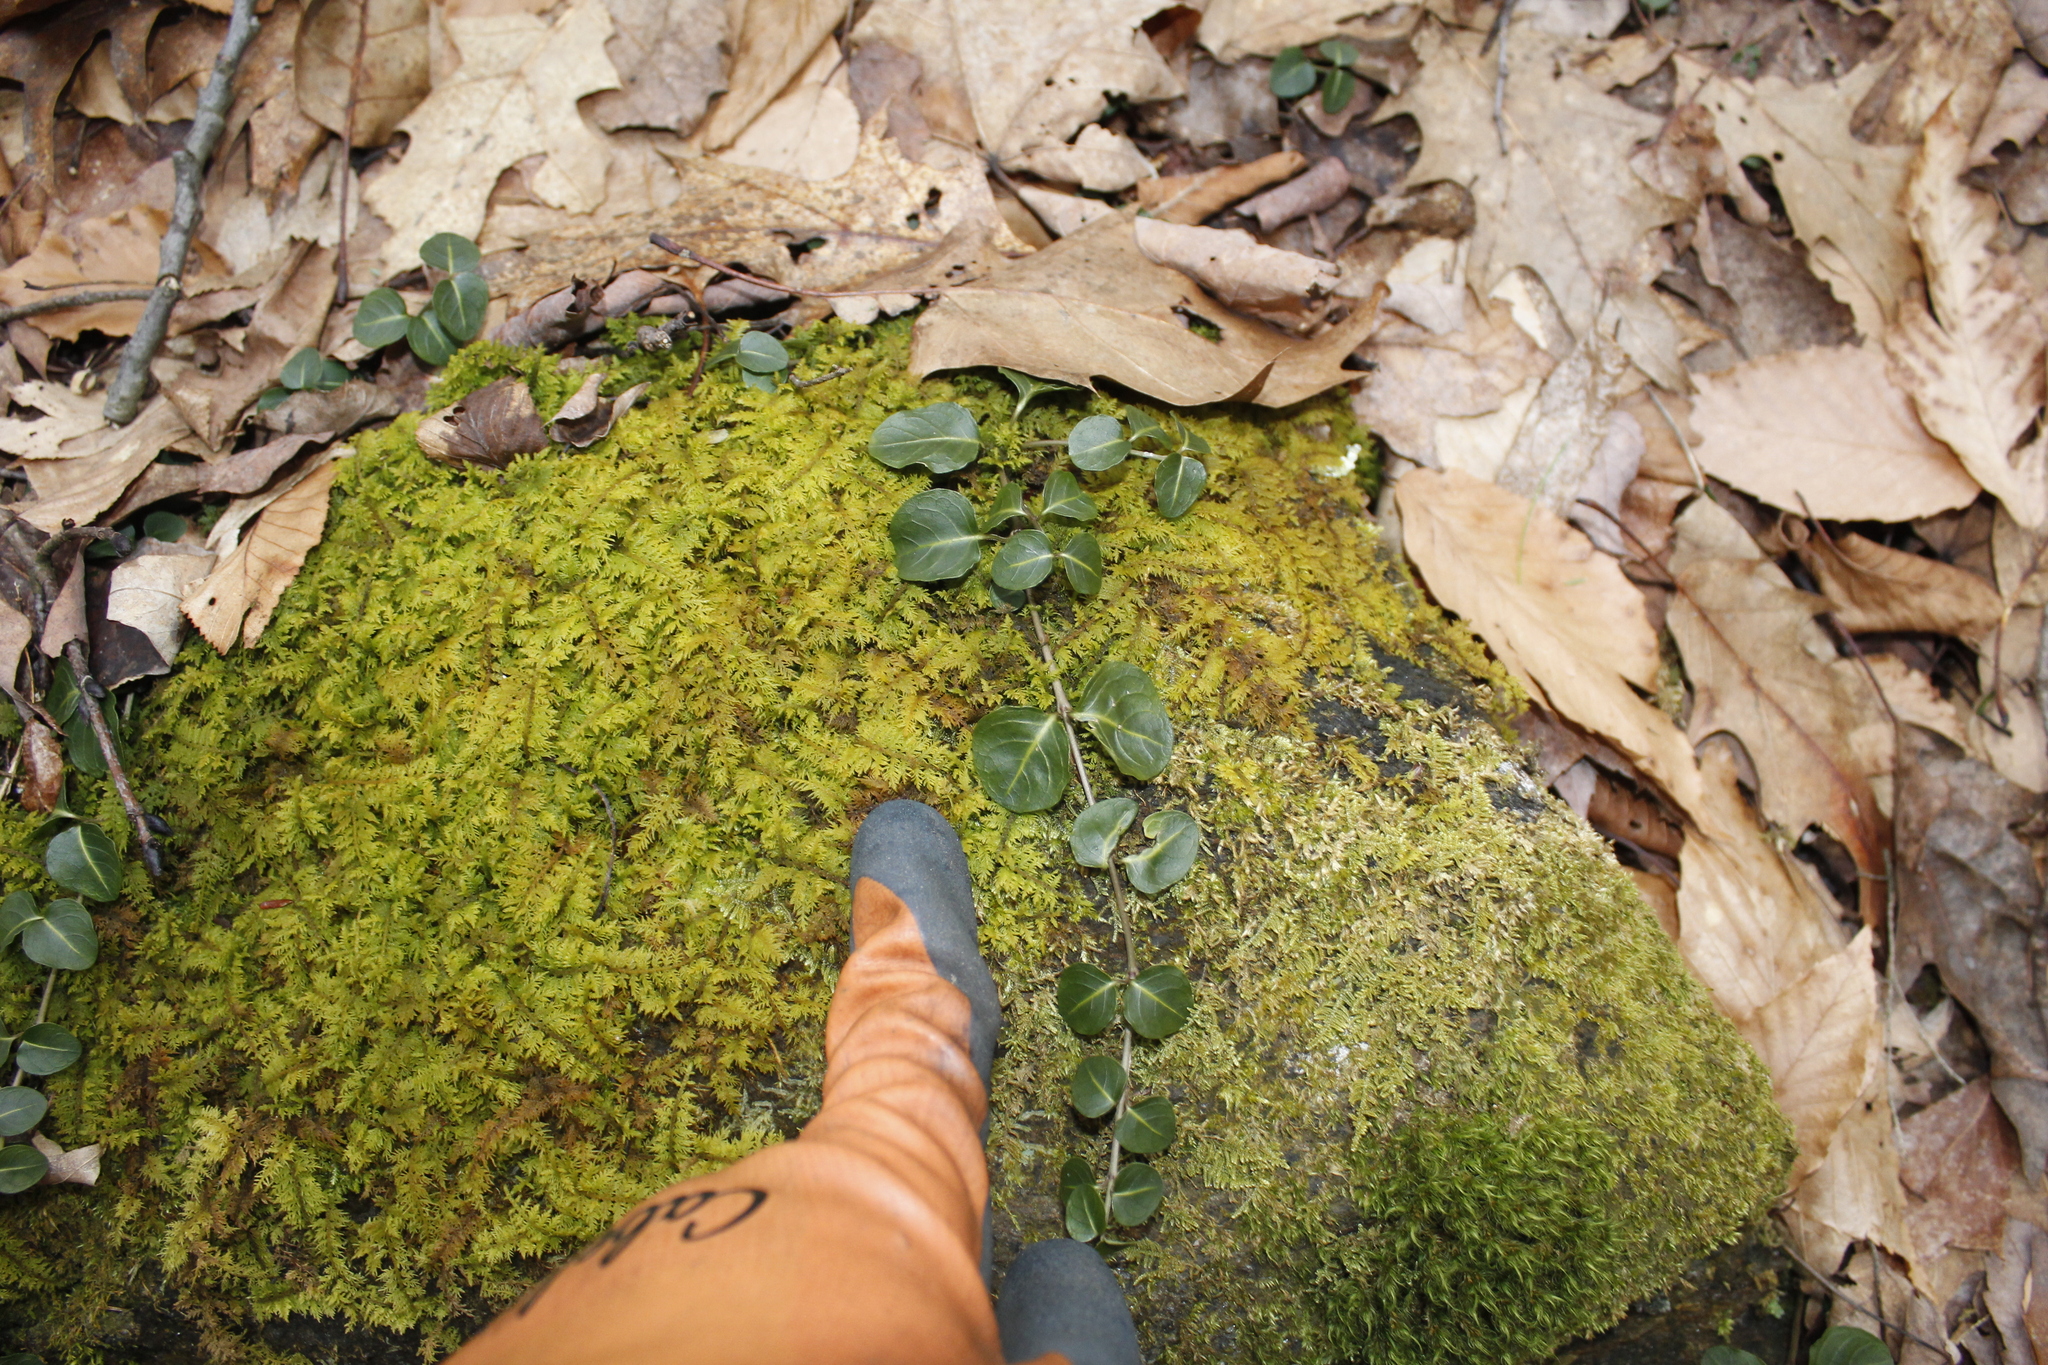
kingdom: Plantae
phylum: Tracheophyta
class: Magnoliopsida
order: Gentianales
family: Rubiaceae
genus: Mitchella
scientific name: Mitchella repens
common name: Partridge-berry
